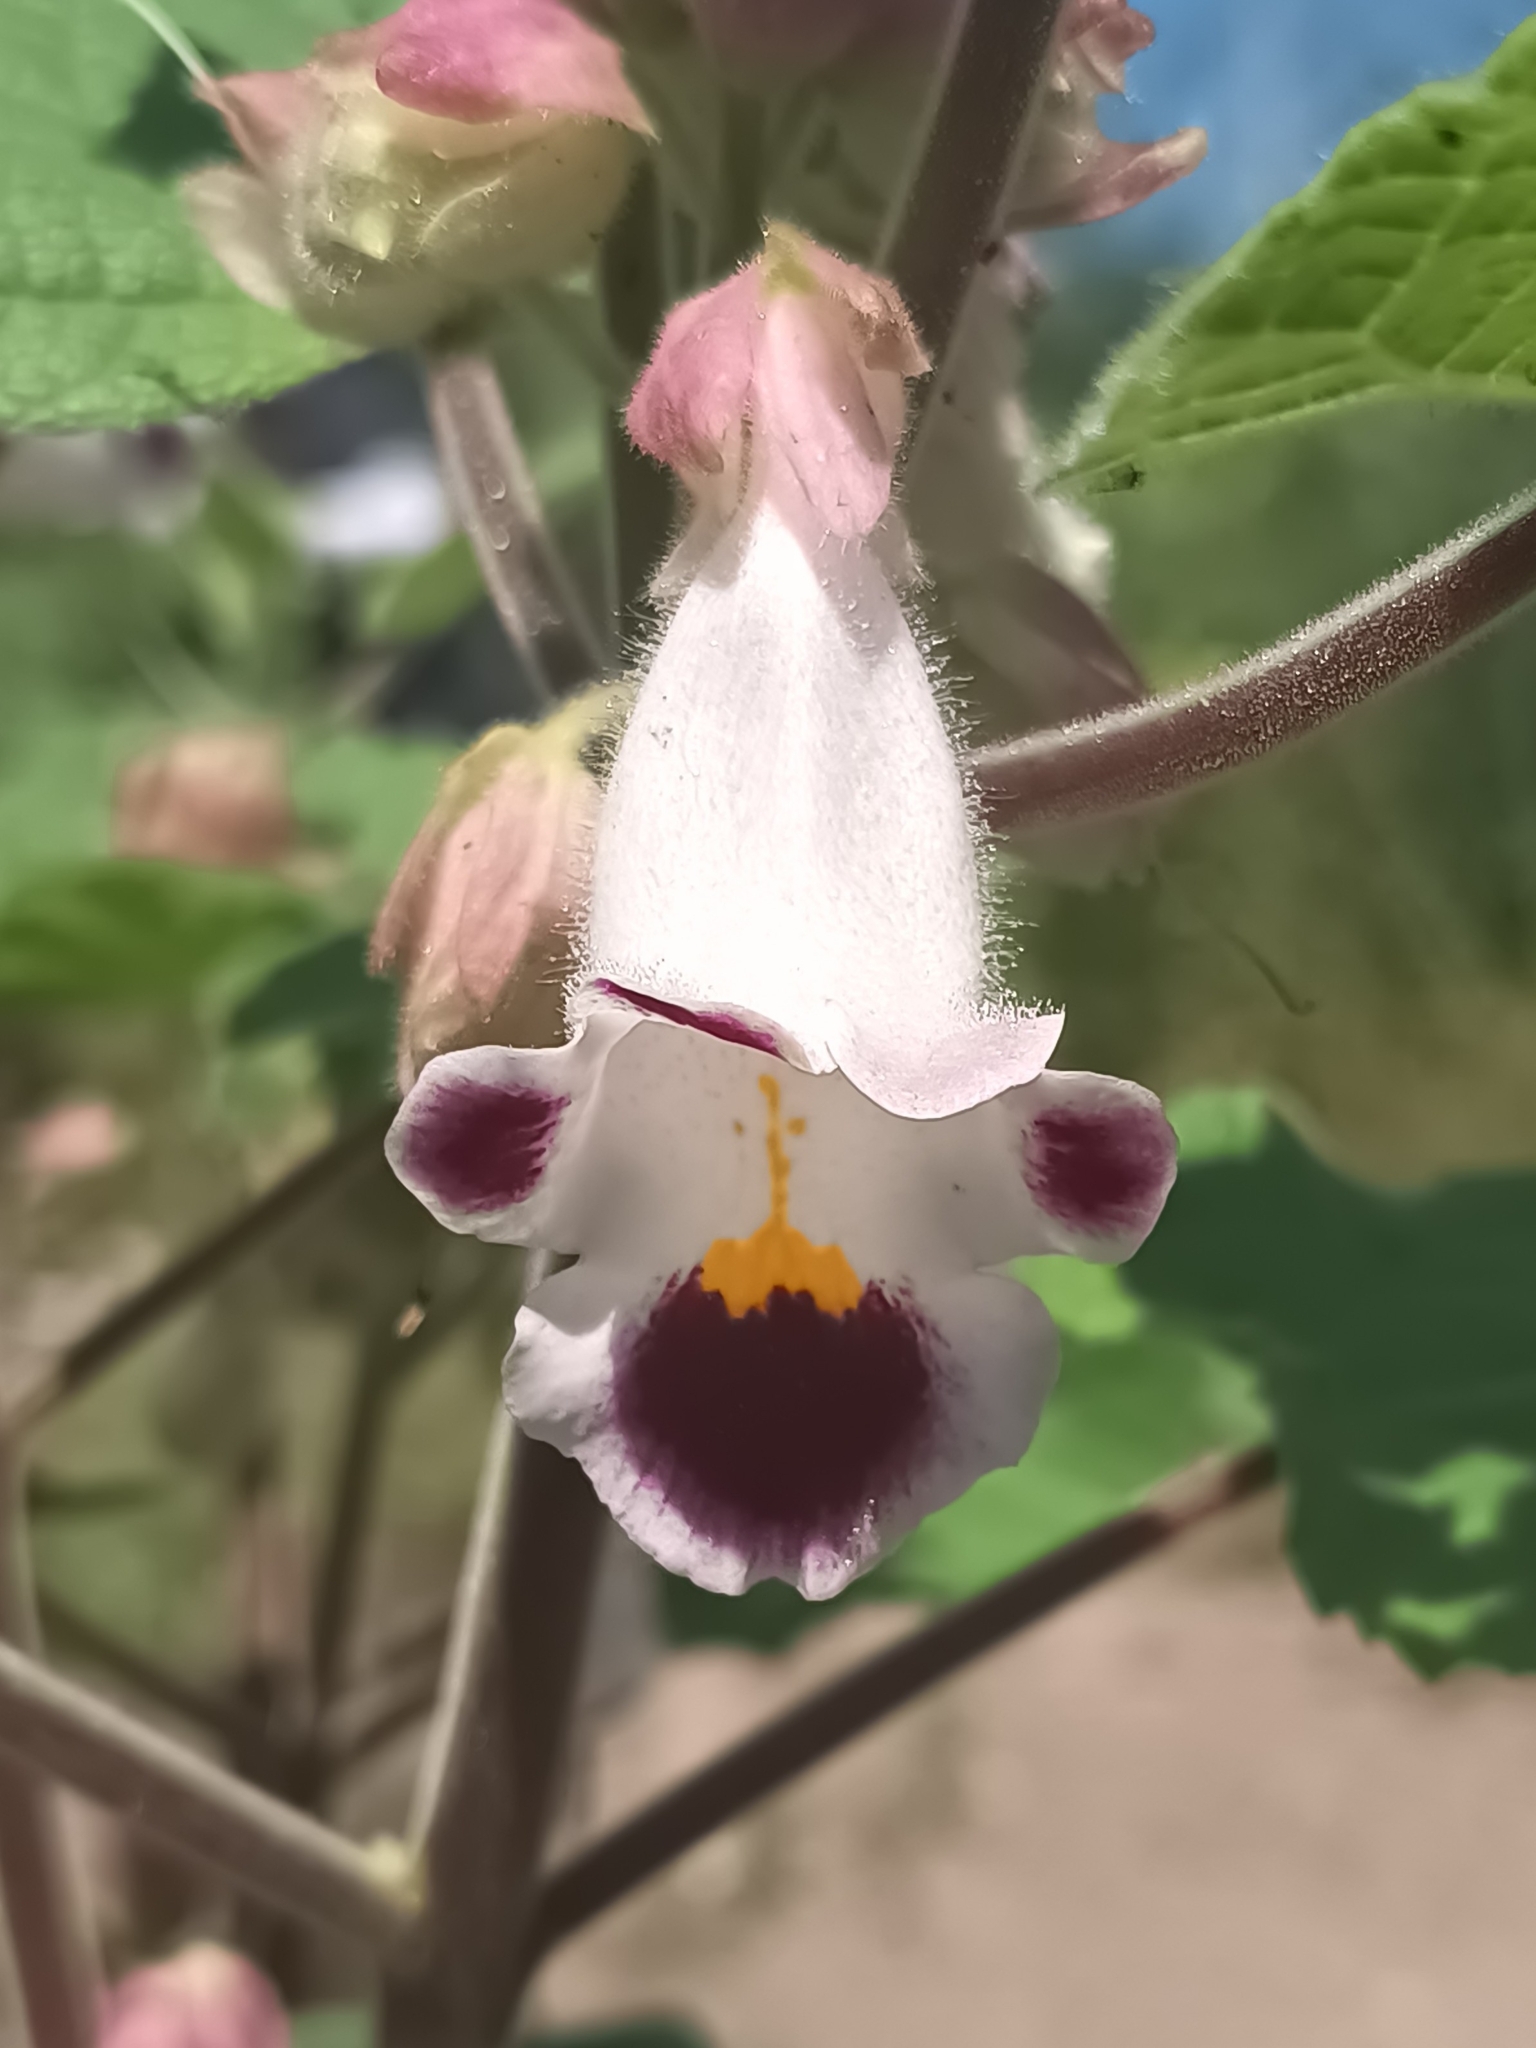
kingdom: Plantae
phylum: Tracheophyta
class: Magnoliopsida
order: Lamiales
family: Martyniaceae
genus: Martynia
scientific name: Martynia annua
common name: Tiger's-claw
